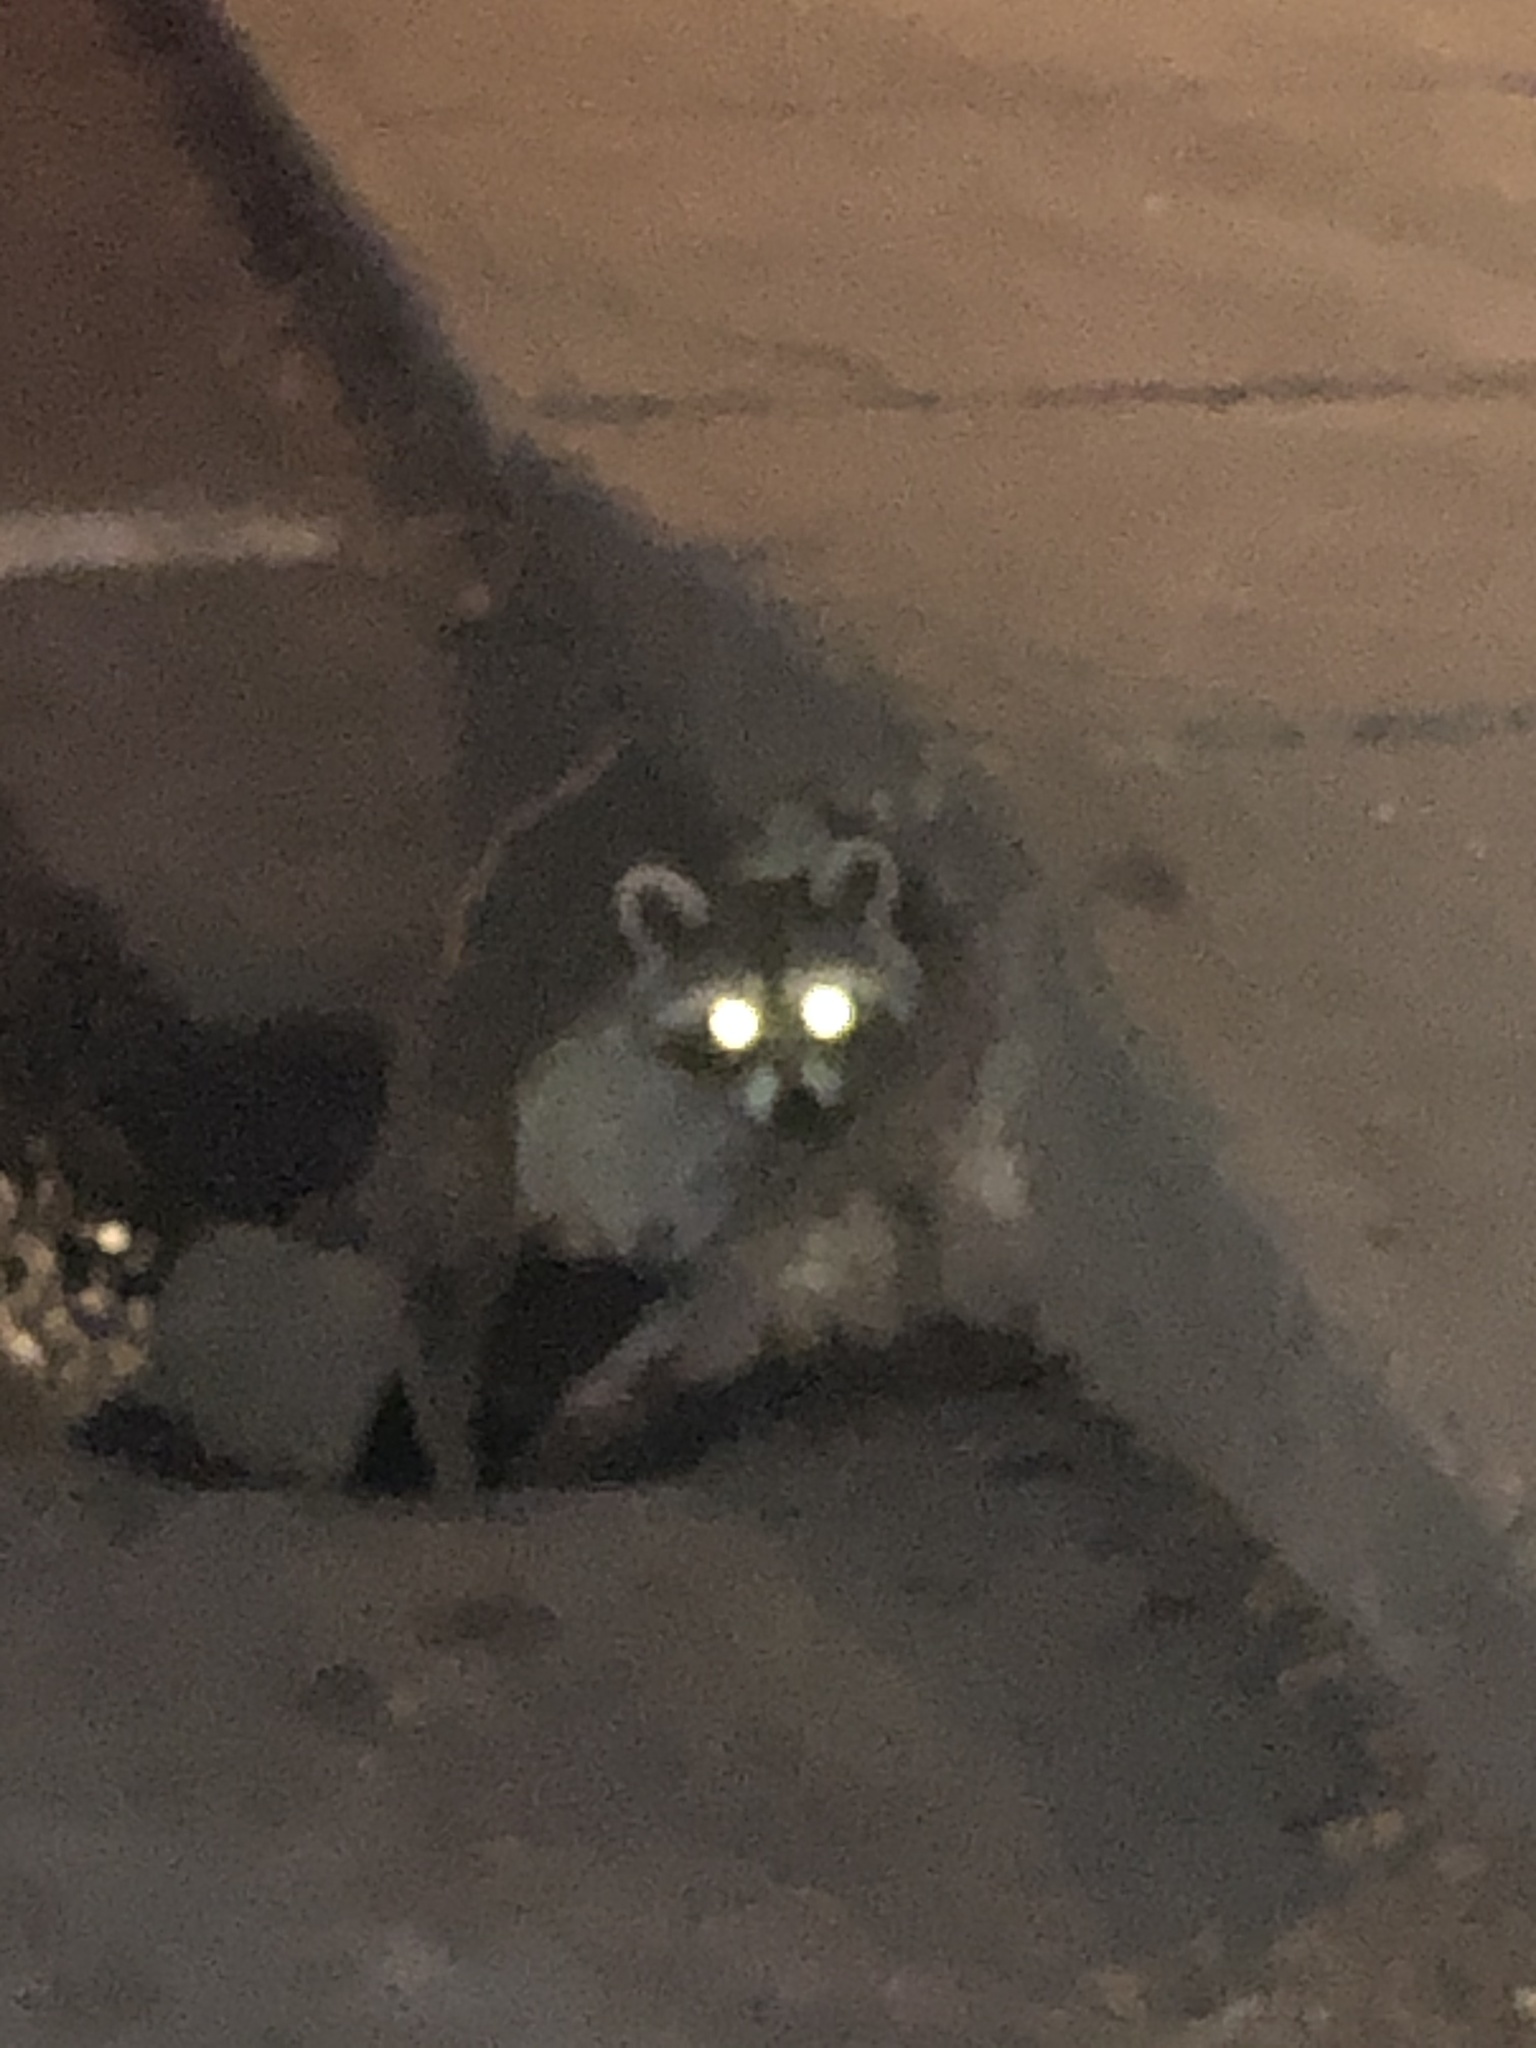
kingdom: Animalia
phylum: Chordata
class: Mammalia
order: Carnivora
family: Procyonidae
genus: Procyon
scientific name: Procyon lotor
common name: Raccoon
